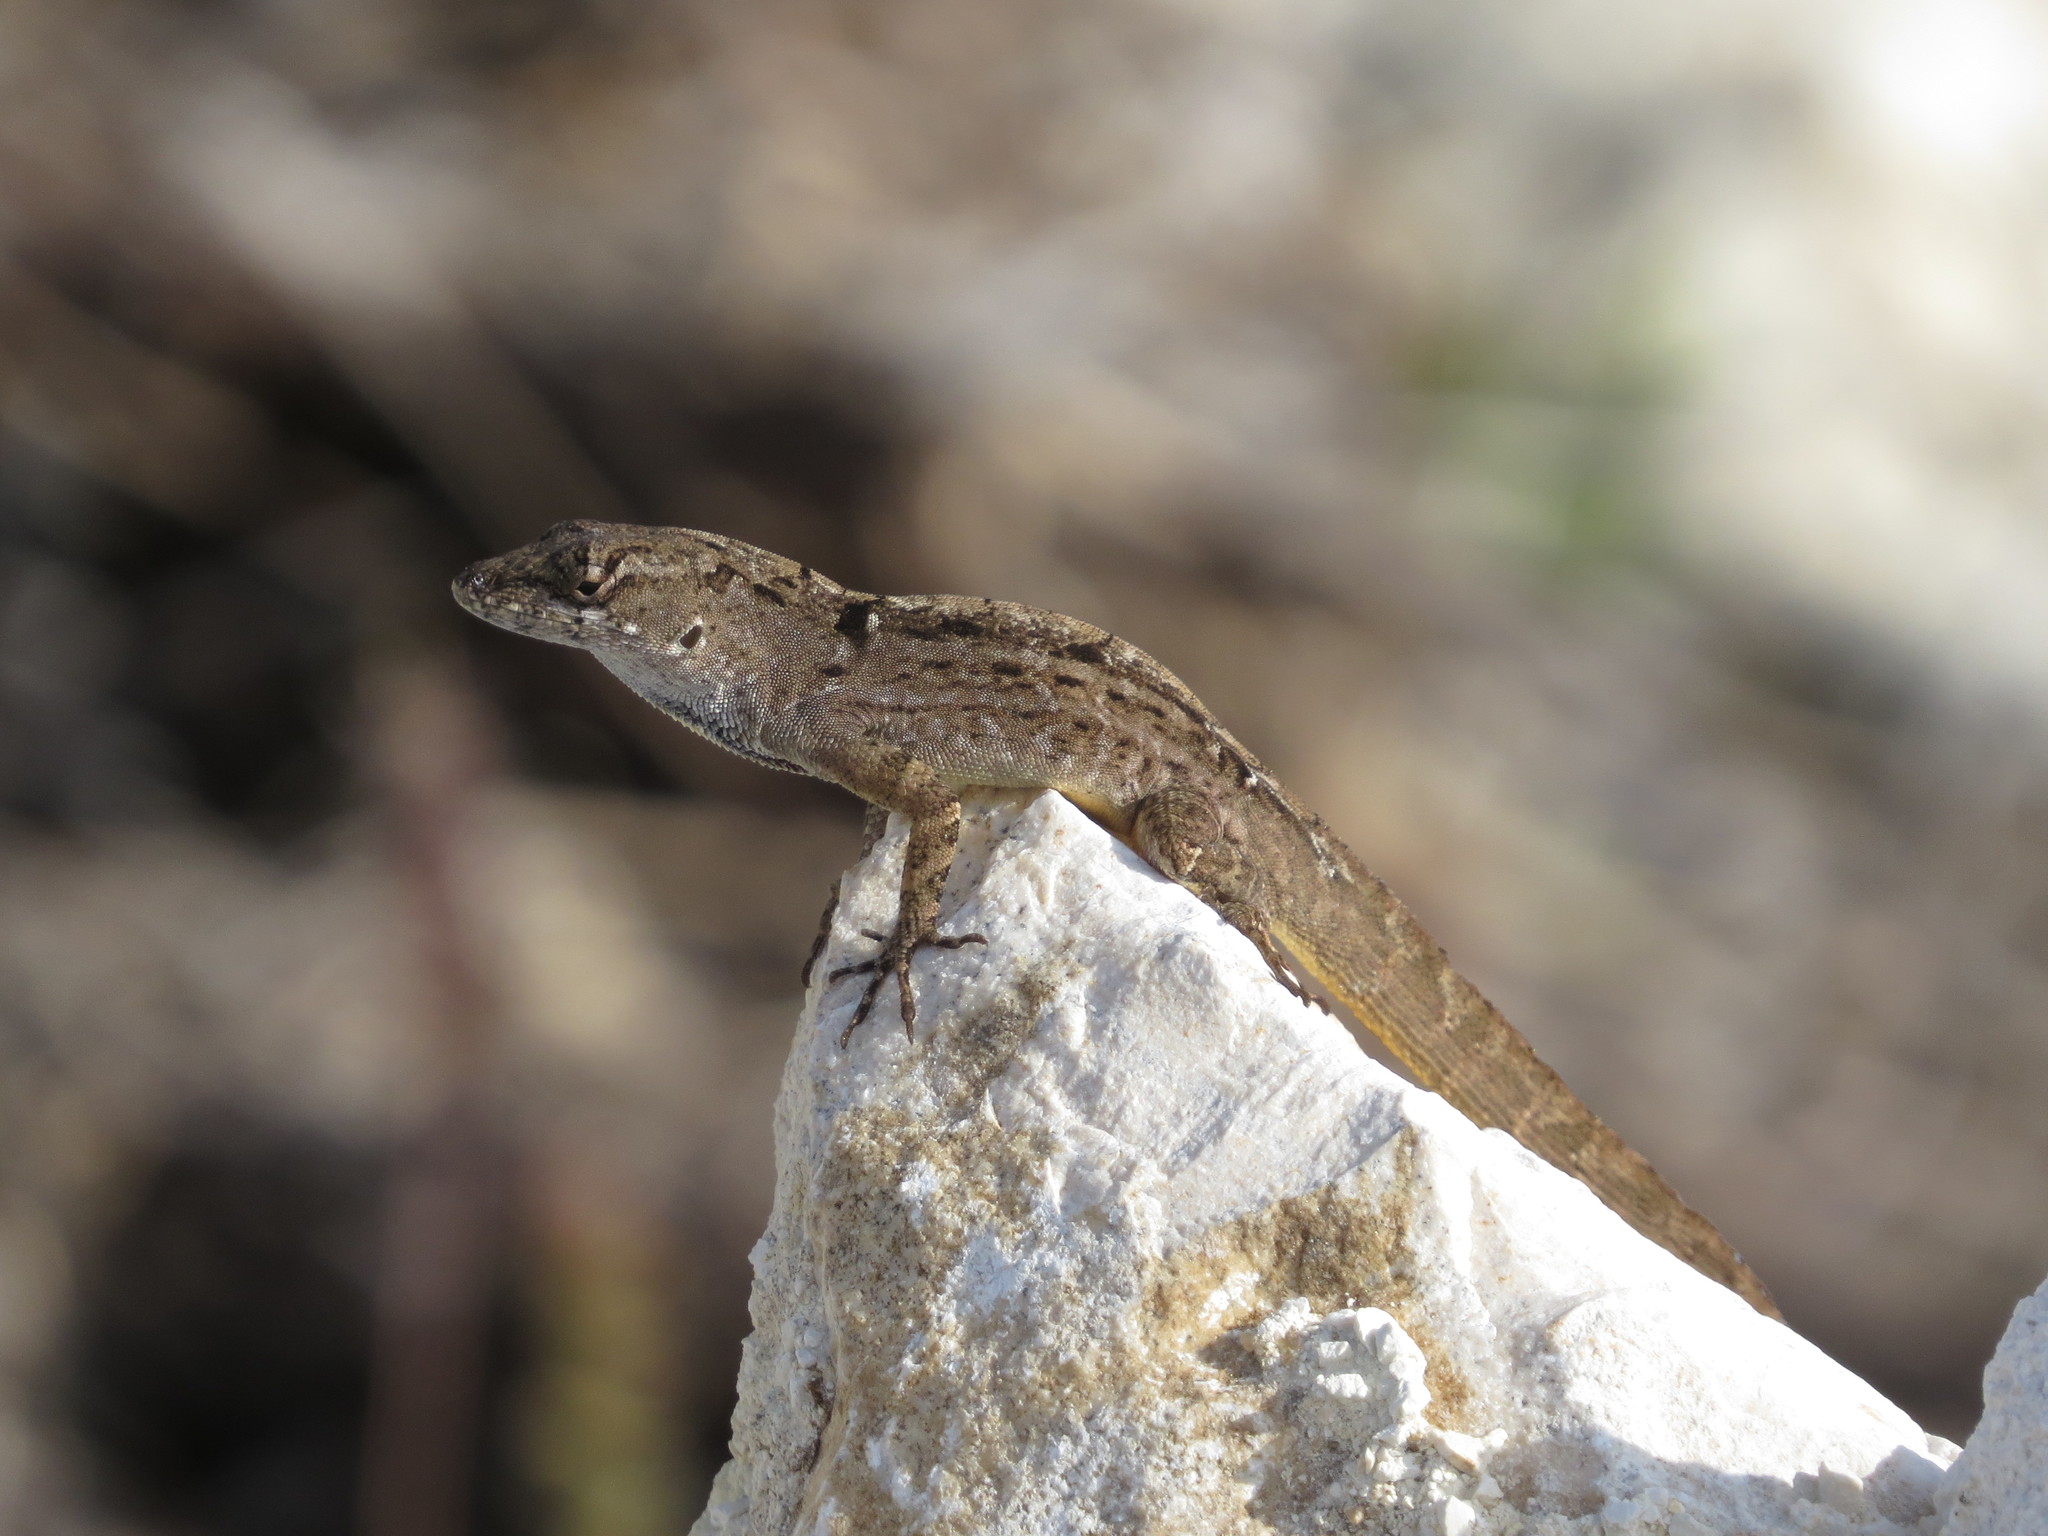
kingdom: Animalia
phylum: Chordata
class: Squamata
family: Dactyloidae
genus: Anolis
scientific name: Anolis sagrei
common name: Brown anole
